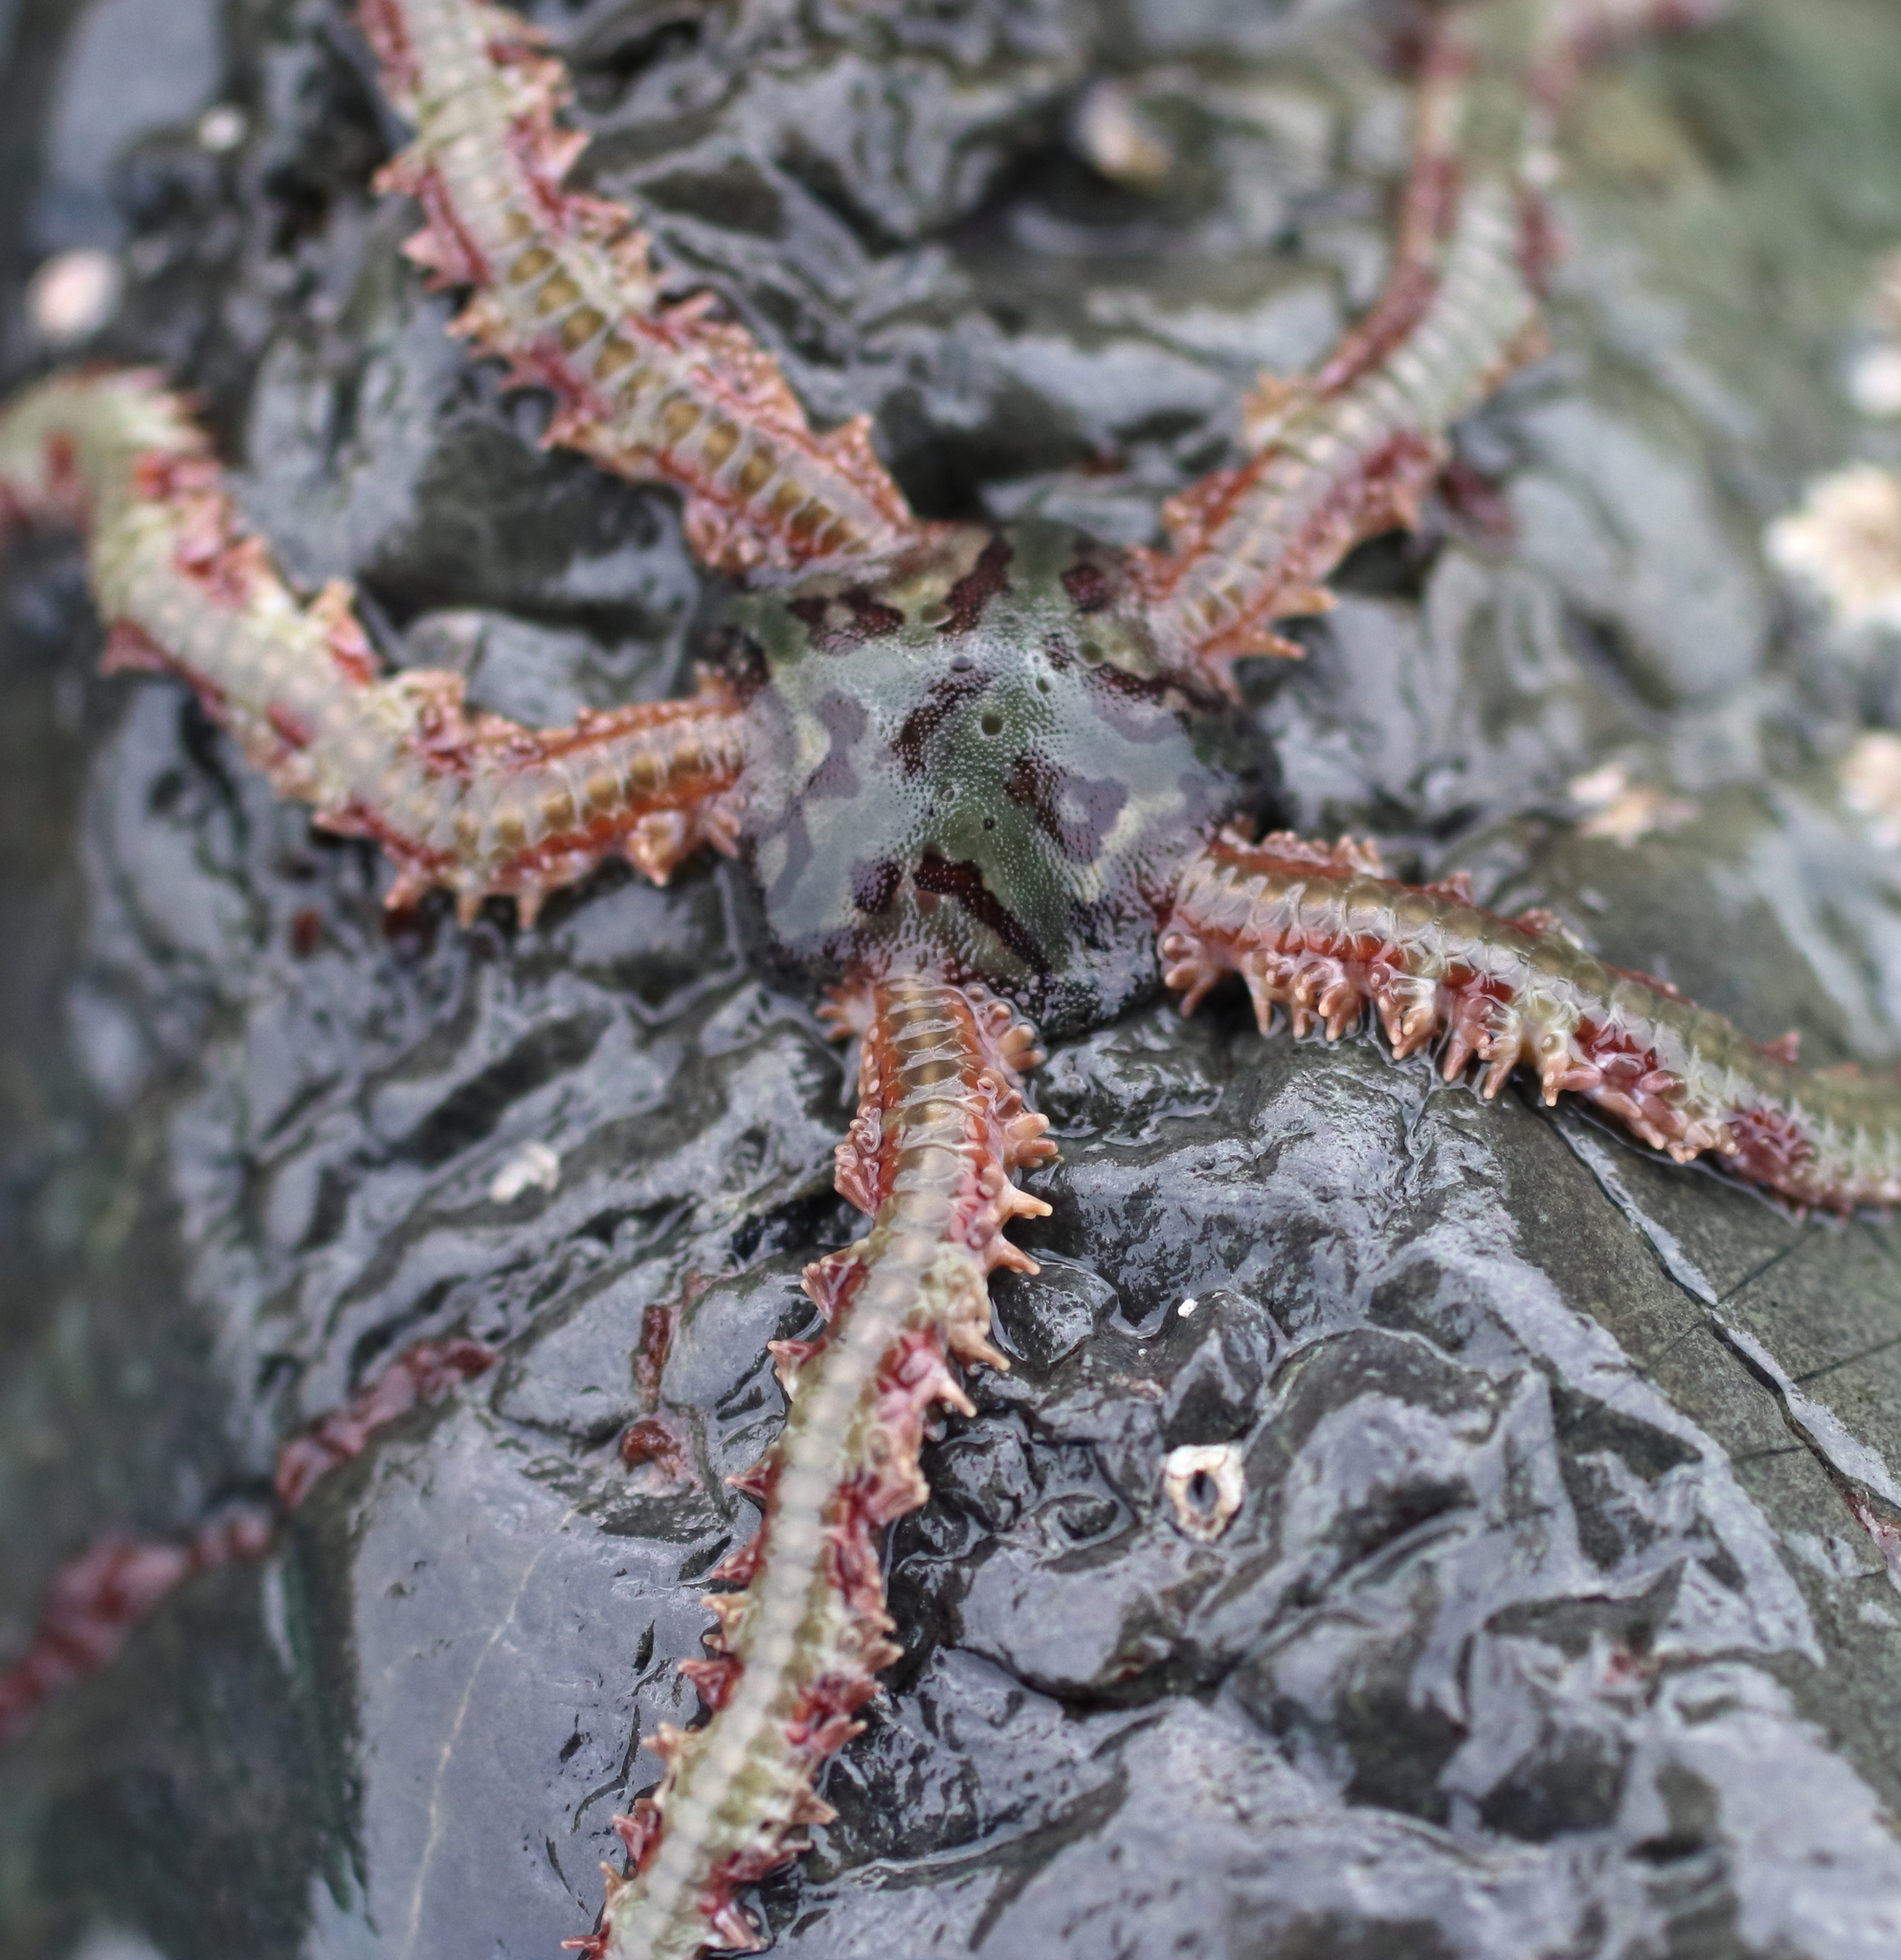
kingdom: Animalia
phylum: Echinodermata
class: Ophiuroidea
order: Amphilepidida
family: Ophiopholidae
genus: Ophiopholis
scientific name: Ophiopholis kennerlyi
